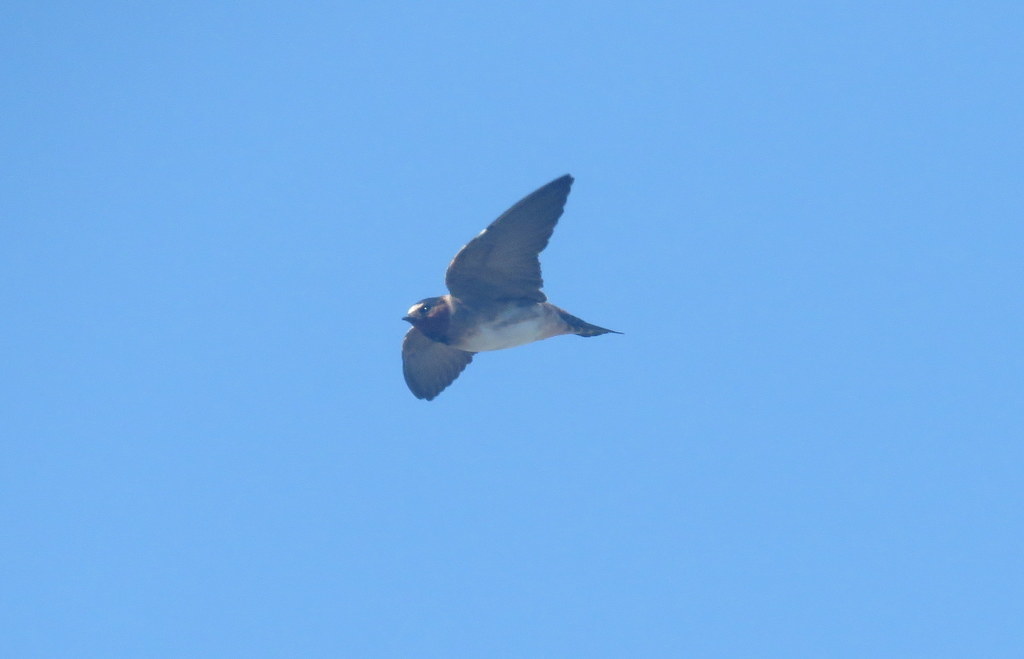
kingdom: Animalia
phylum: Chordata
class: Aves
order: Passeriformes
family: Hirundinidae
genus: Petrochelidon
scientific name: Petrochelidon pyrrhonota
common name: American cliff swallow
